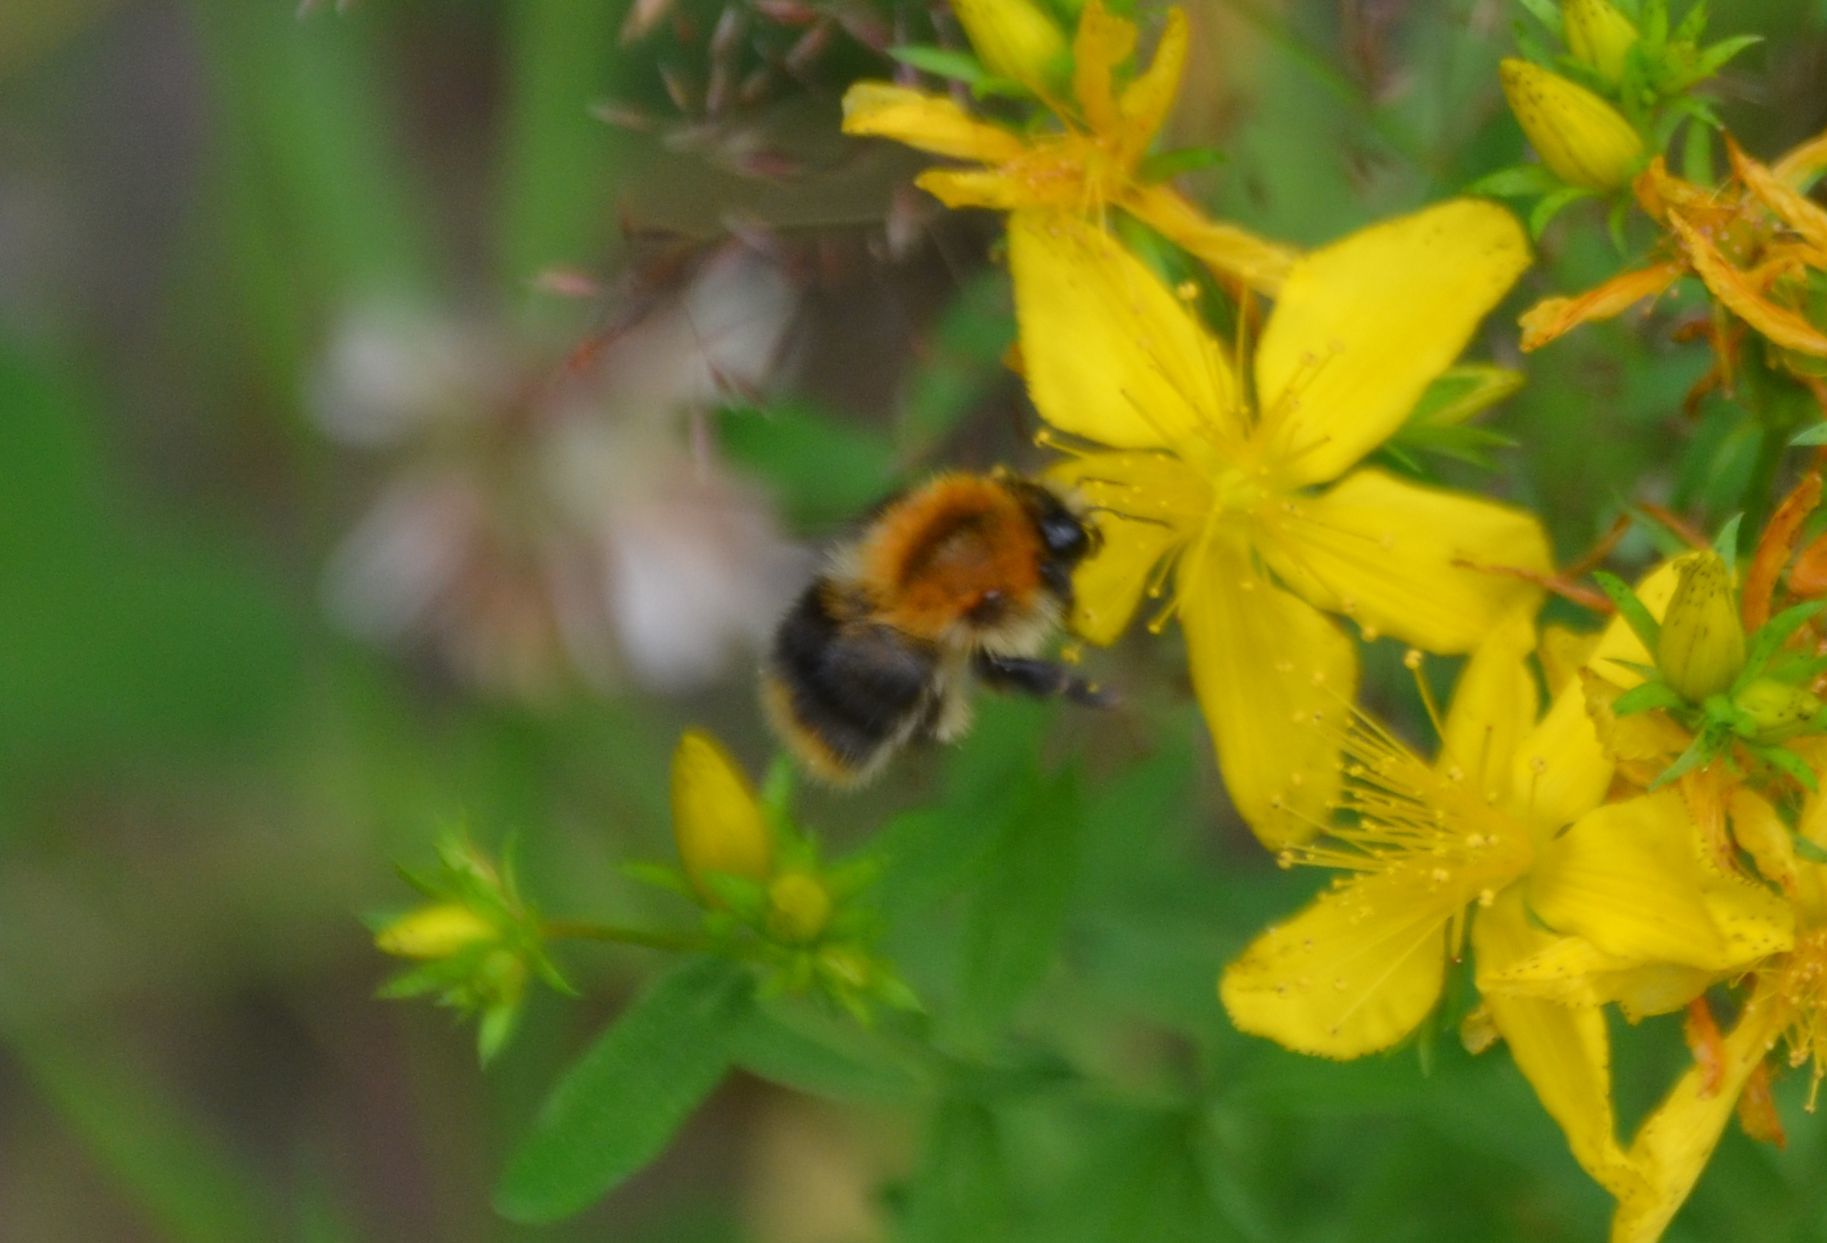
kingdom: Animalia
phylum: Arthropoda
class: Insecta
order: Hymenoptera
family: Apidae
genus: Bombus
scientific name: Bombus pascuorum
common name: Common carder bee
